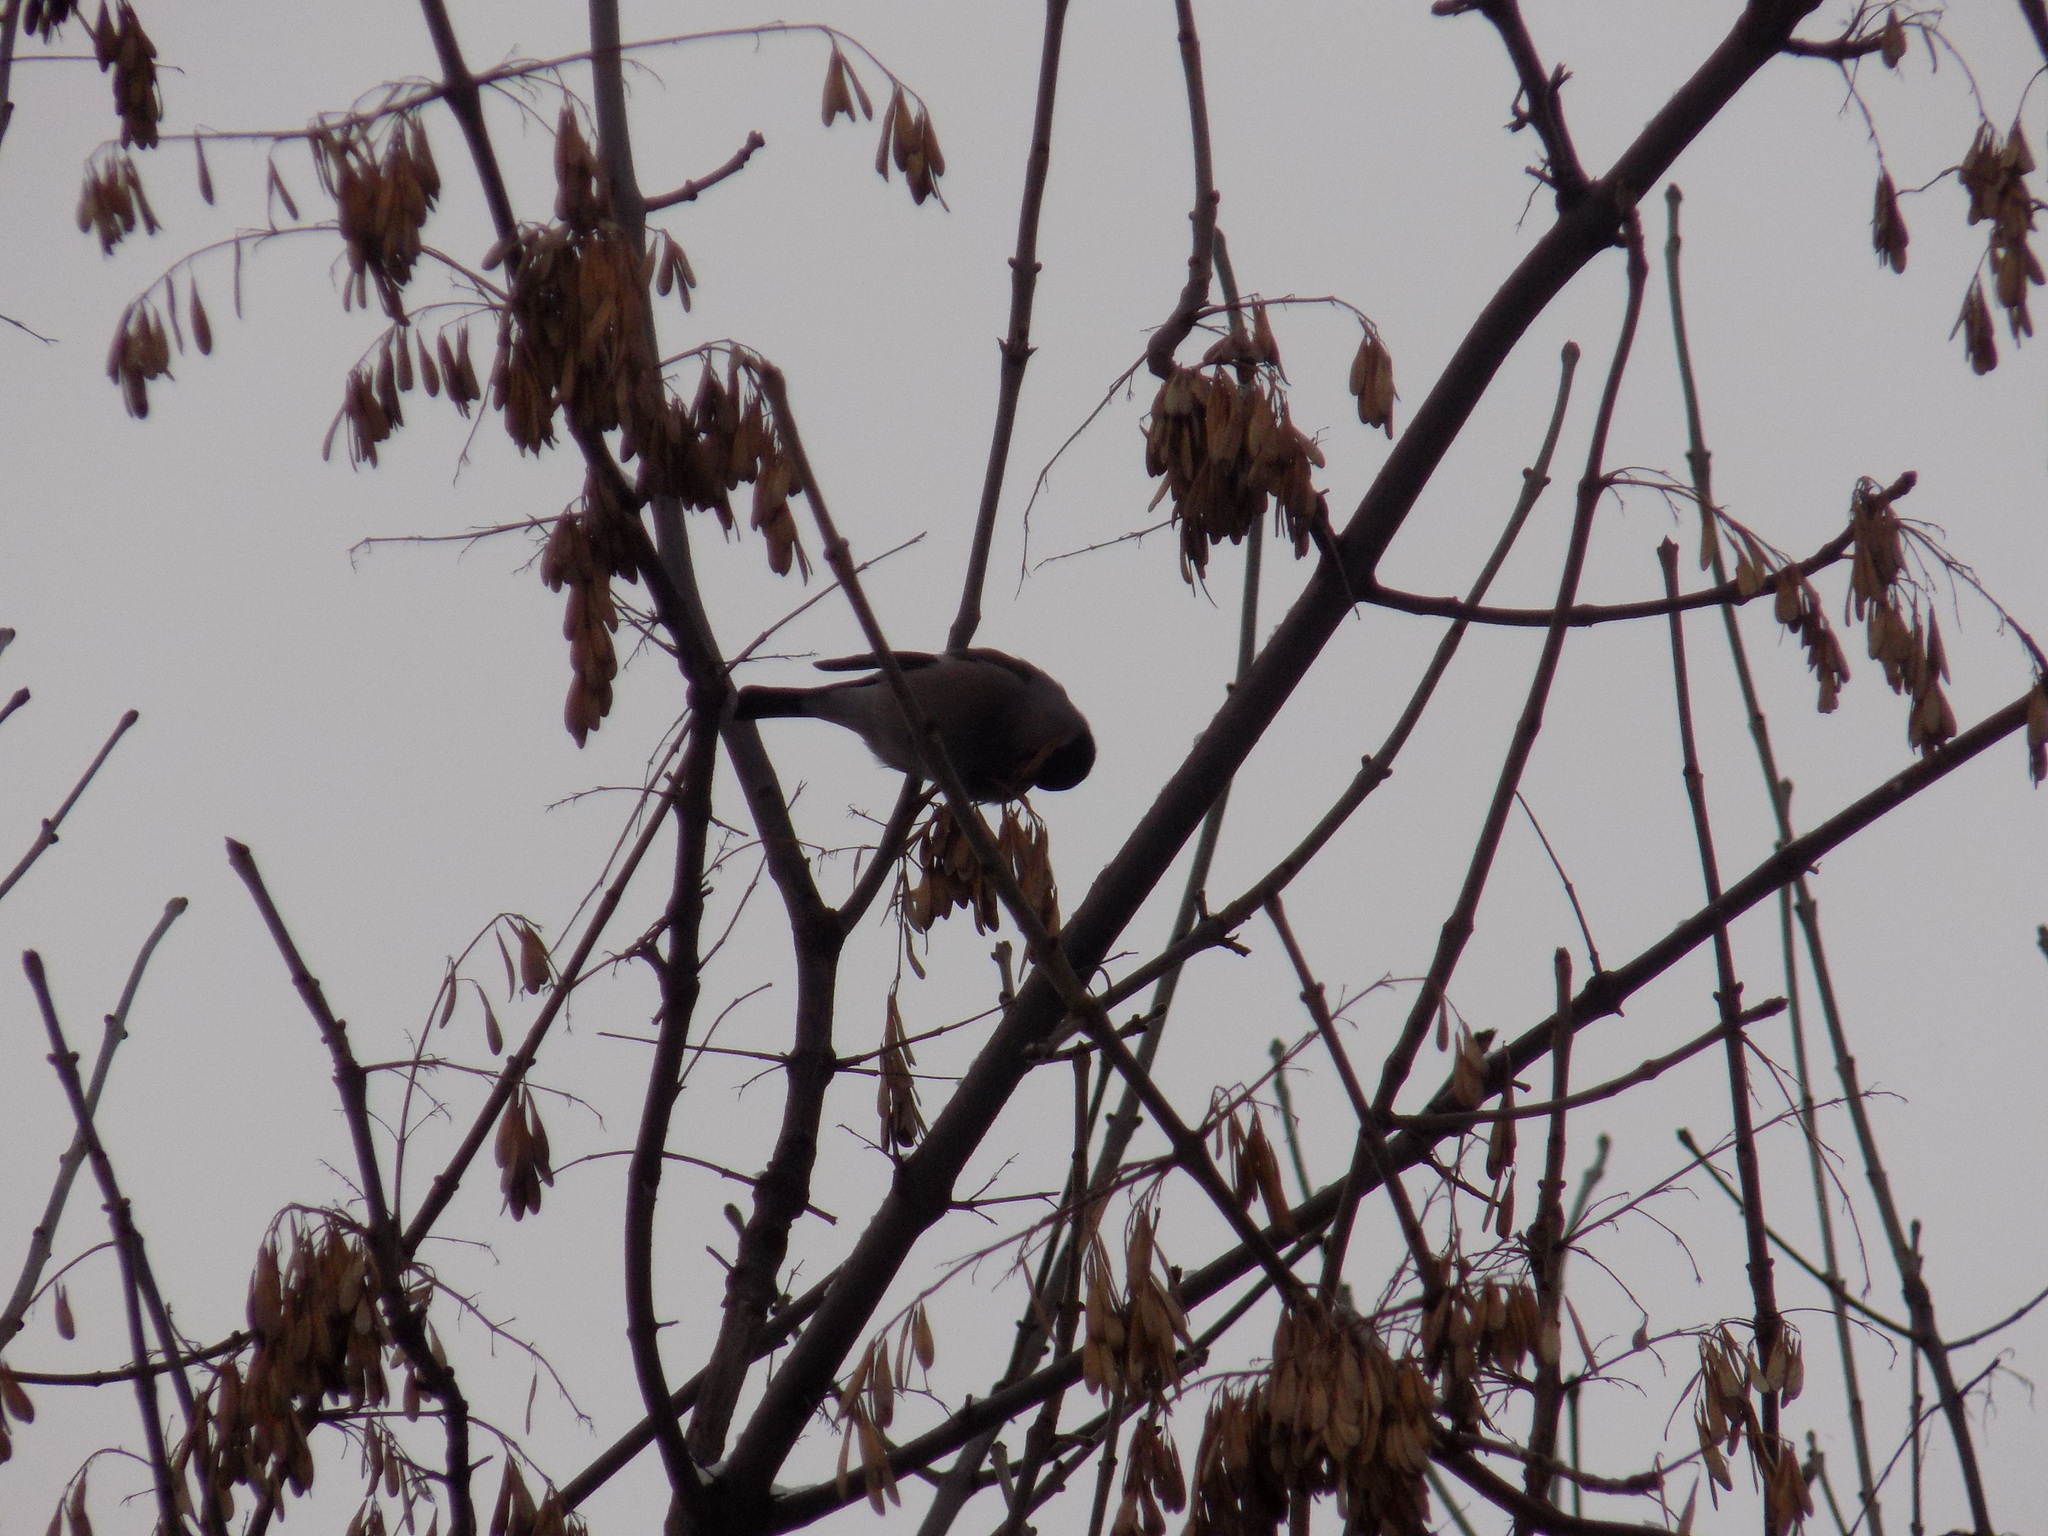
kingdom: Animalia
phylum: Chordata
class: Aves
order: Passeriformes
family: Fringillidae
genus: Pyrrhula
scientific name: Pyrrhula pyrrhula
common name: Eurasian bullfinch
